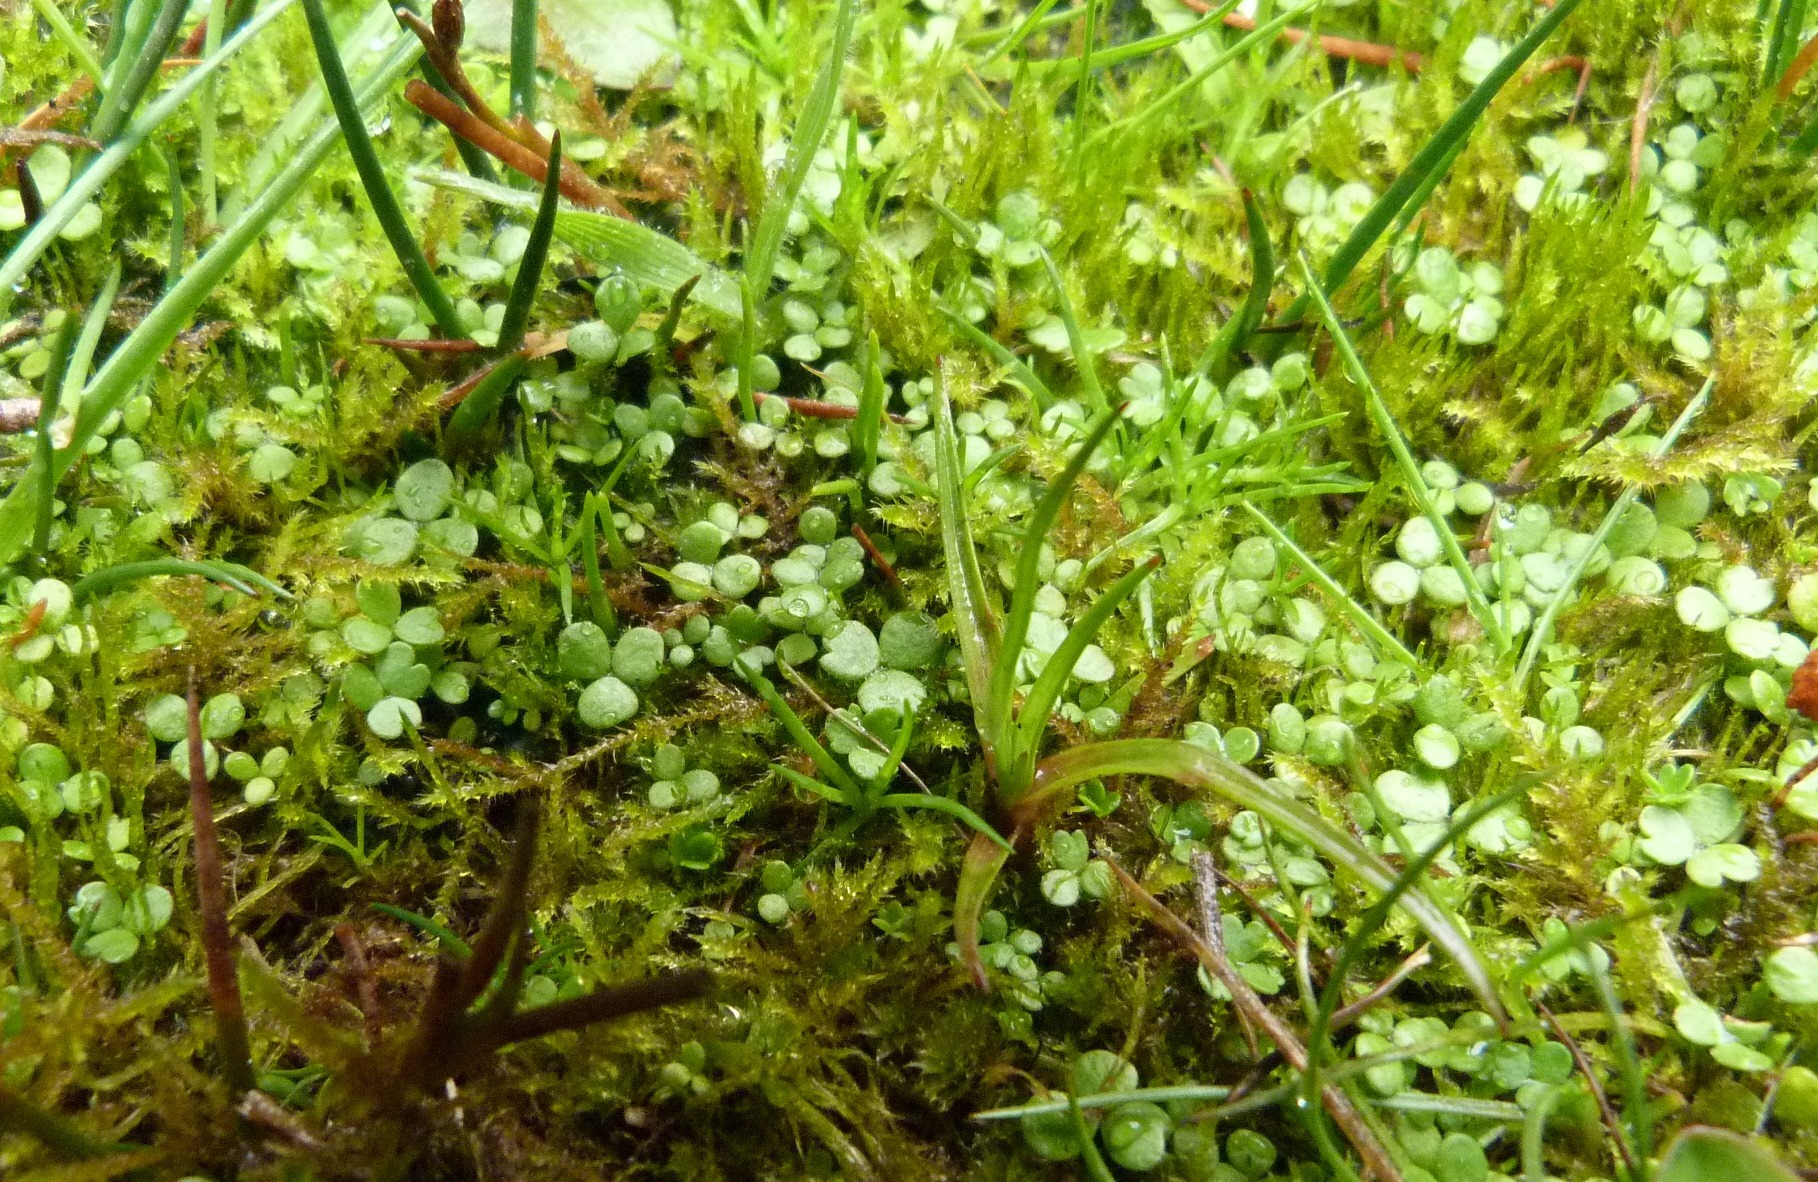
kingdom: Plantae
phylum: Tracheophyta
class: Magnoliopsida
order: Apiales
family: Araliaceae
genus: Hydrocotyle
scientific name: Hydrocotyle sulcata
